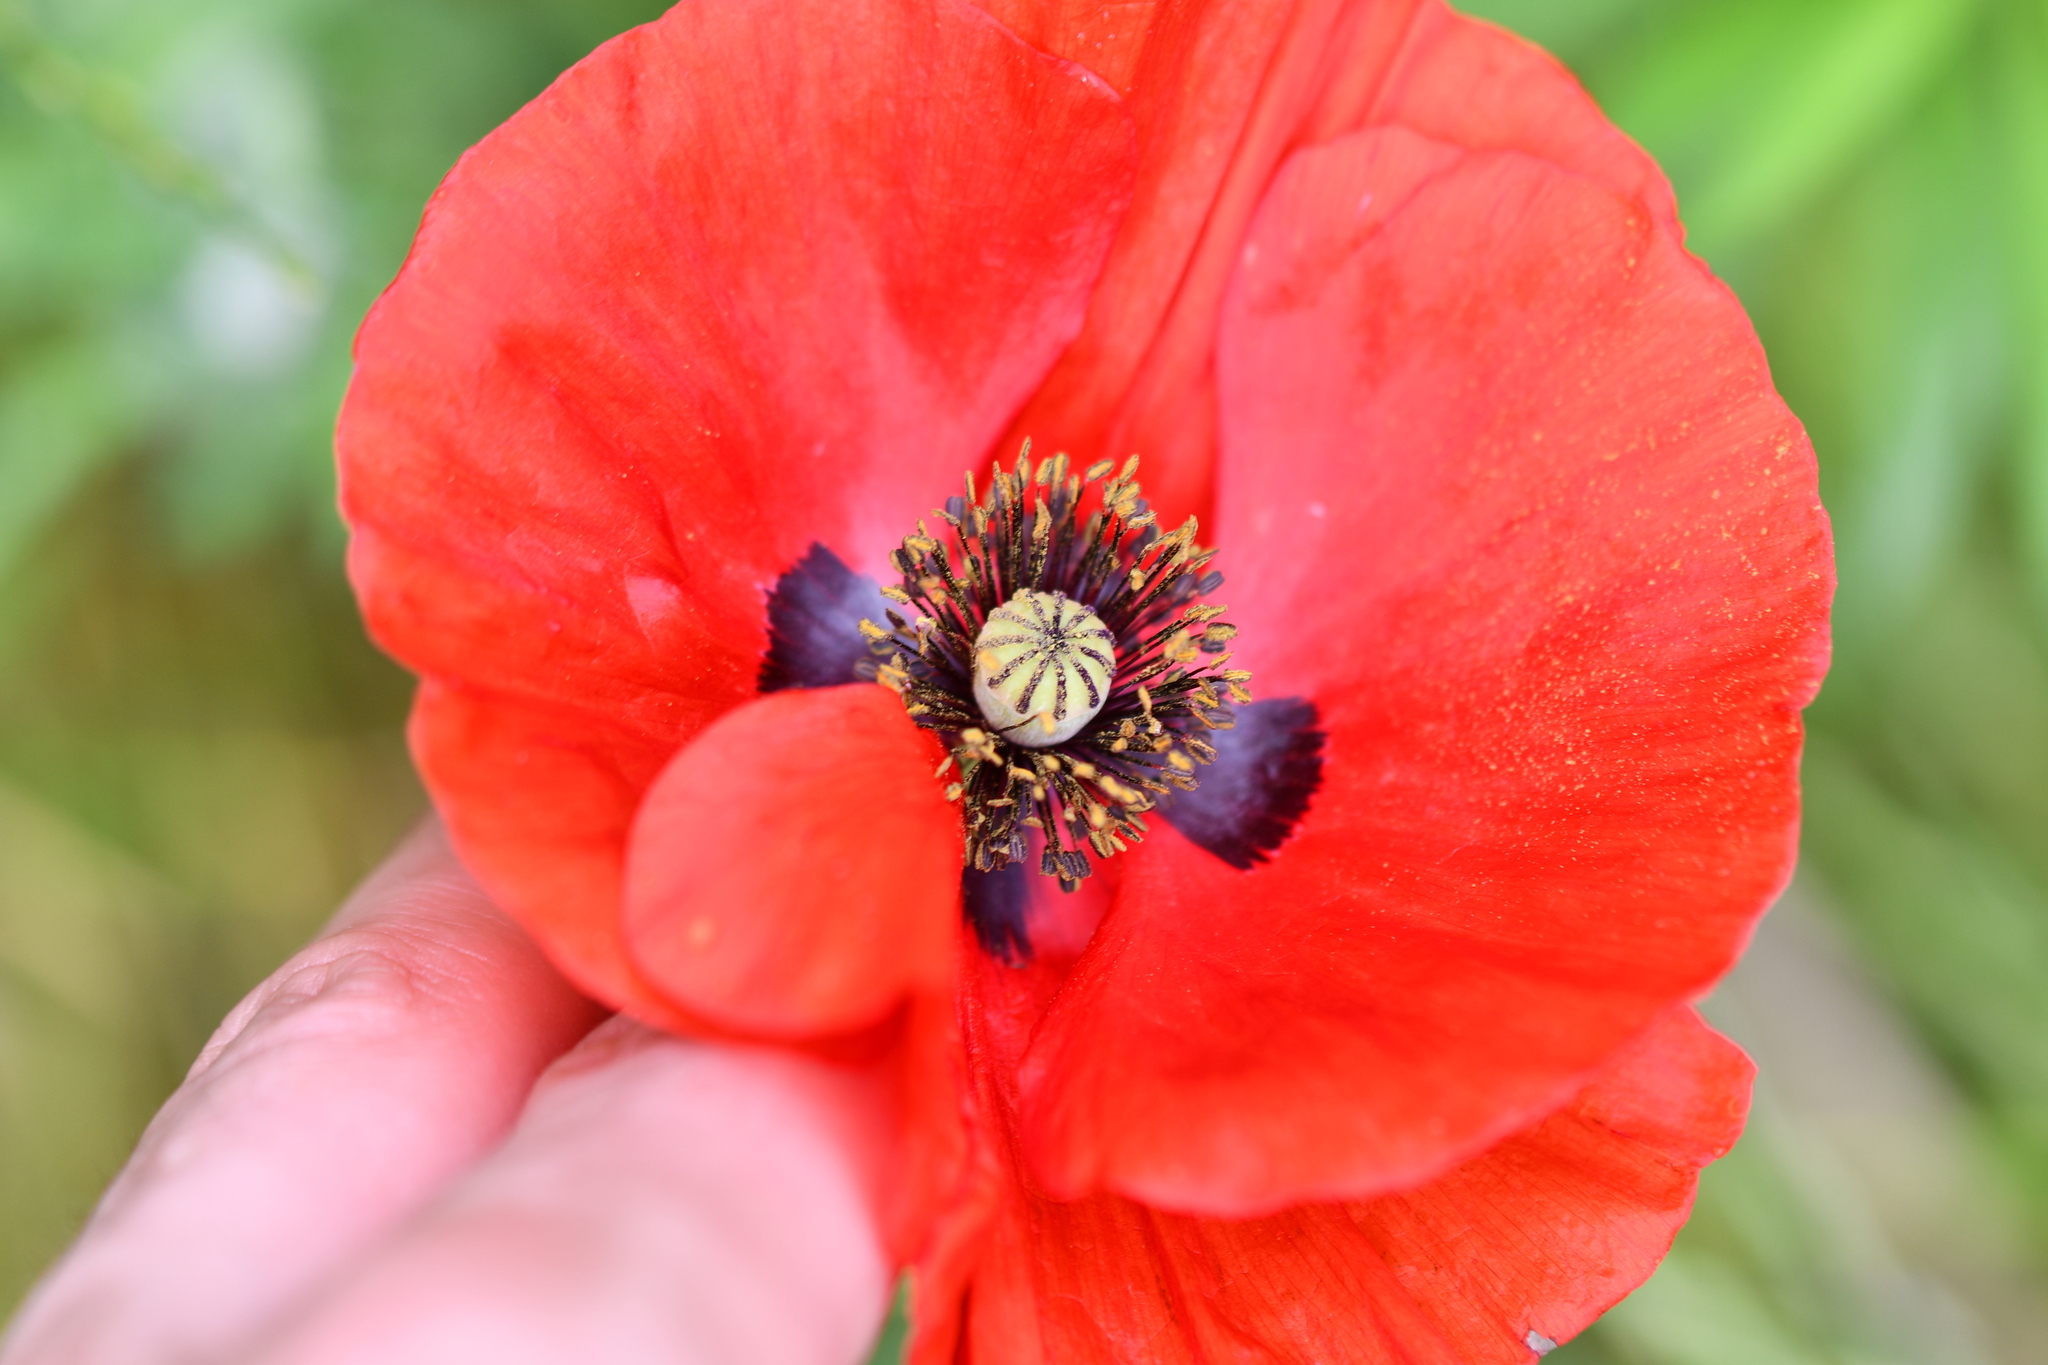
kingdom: Plantae
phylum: Tracheophyta
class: Magnoliopsida
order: Ranunculales
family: Papaveraceae
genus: Papaver
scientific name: Papaver rhoeas
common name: Corn poppy
